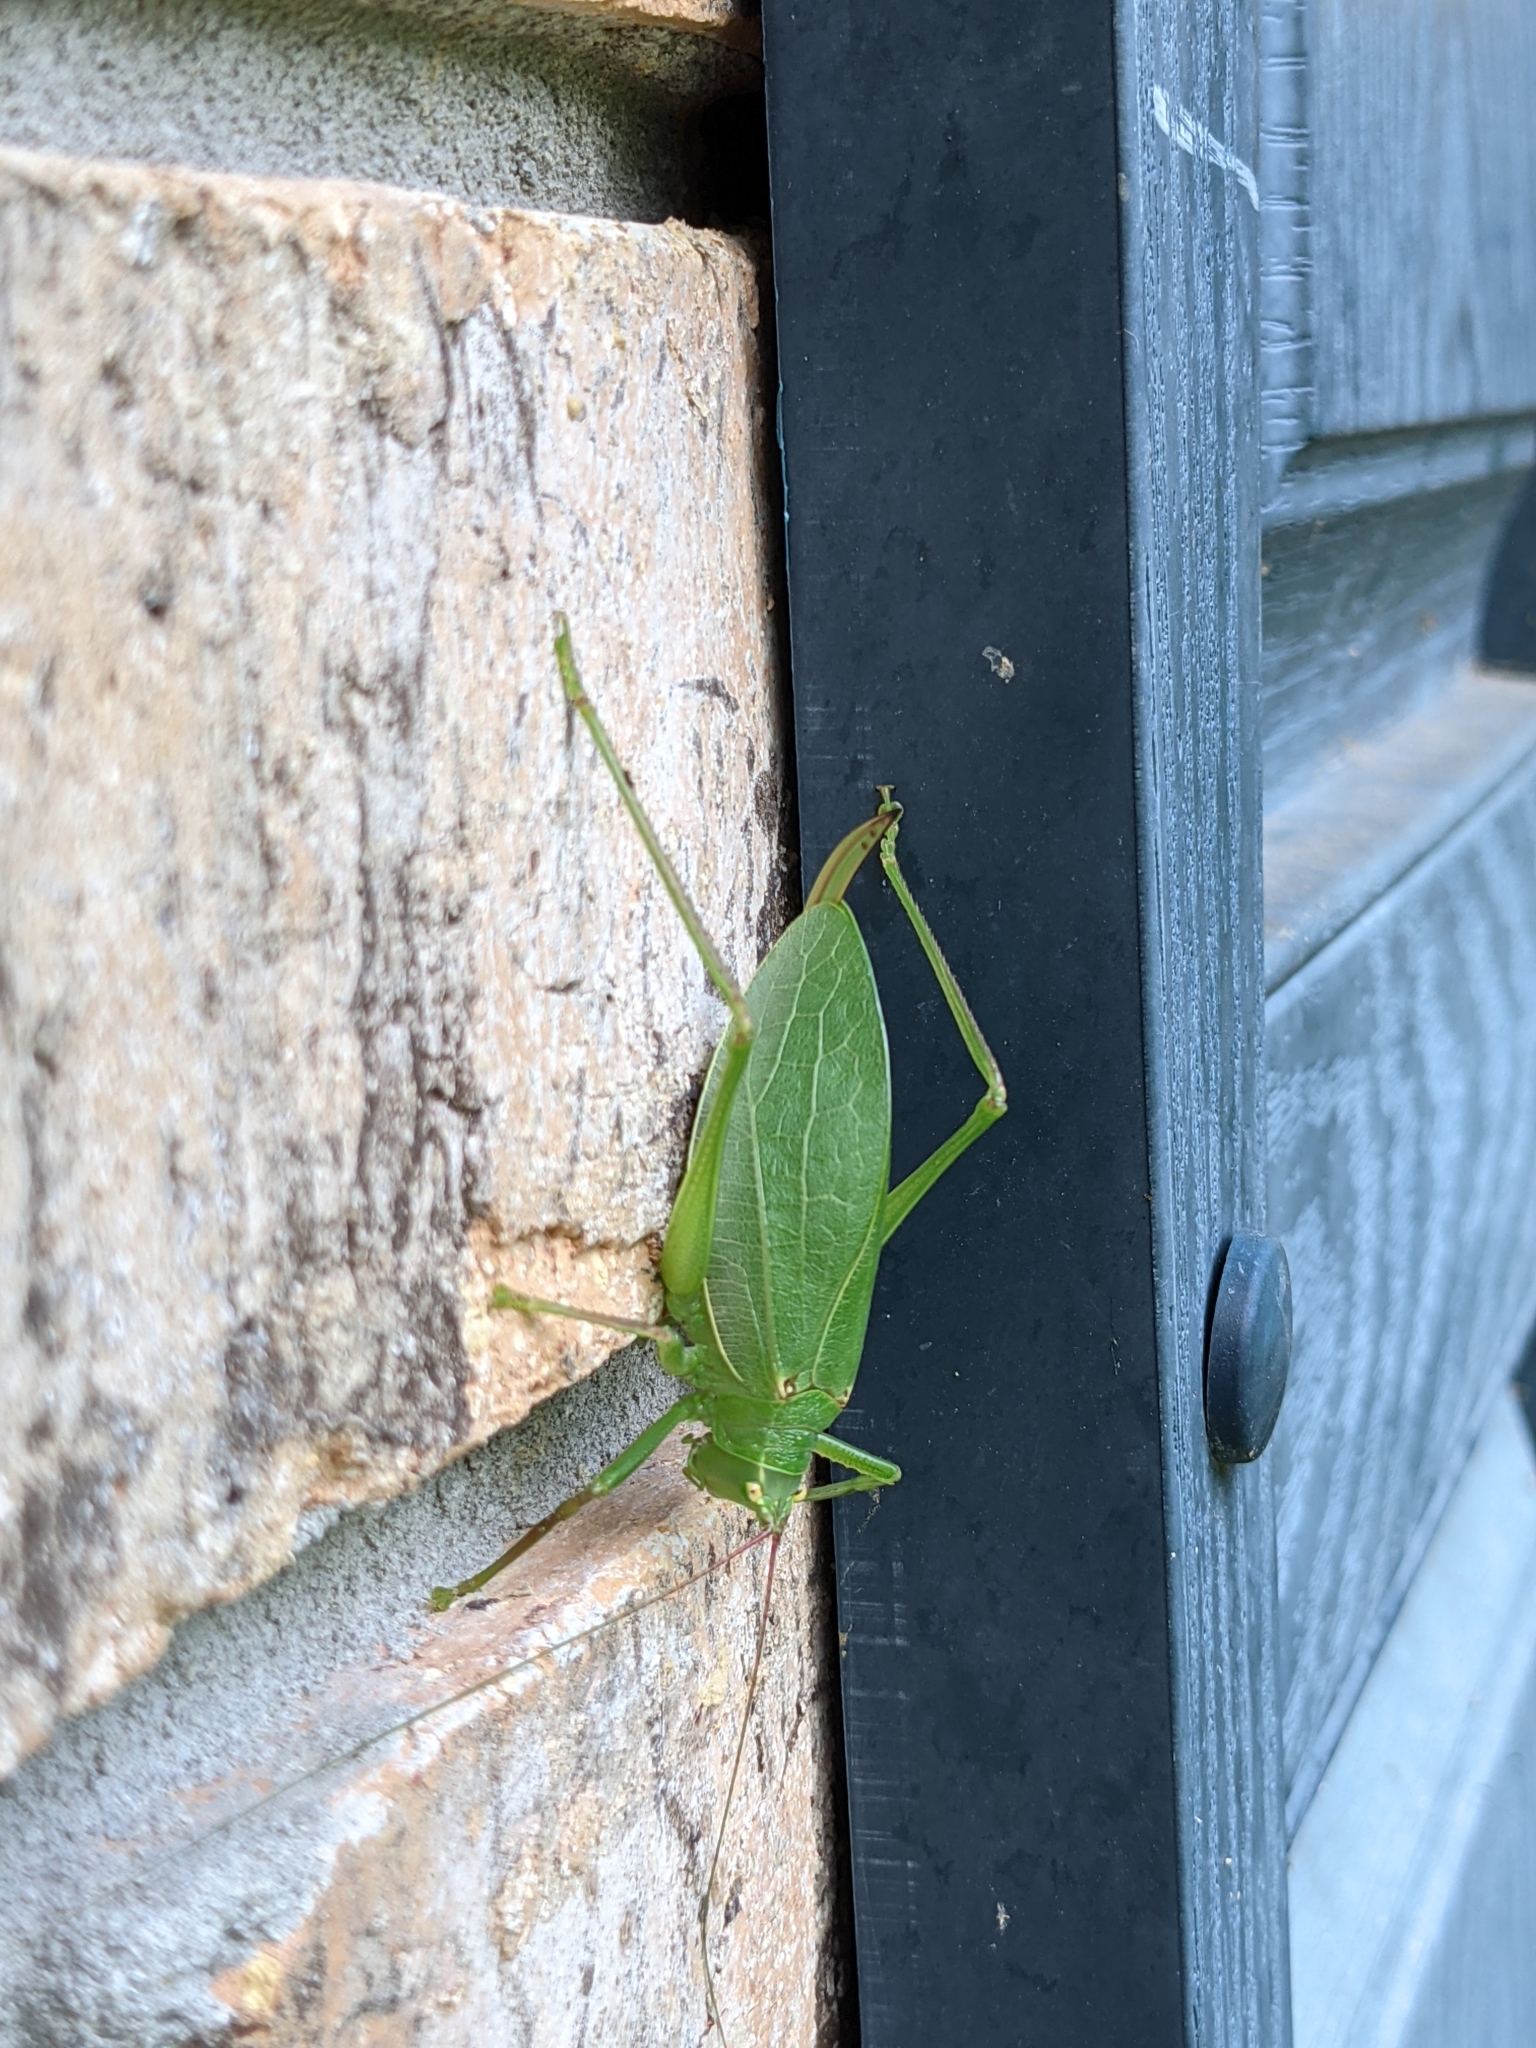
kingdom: Animalia
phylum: Arthropoda
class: Insecta
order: Orthoptera
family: Tettigoniidae
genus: Pterophylla
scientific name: Pterophylla camellifolia
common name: Common true katydid
